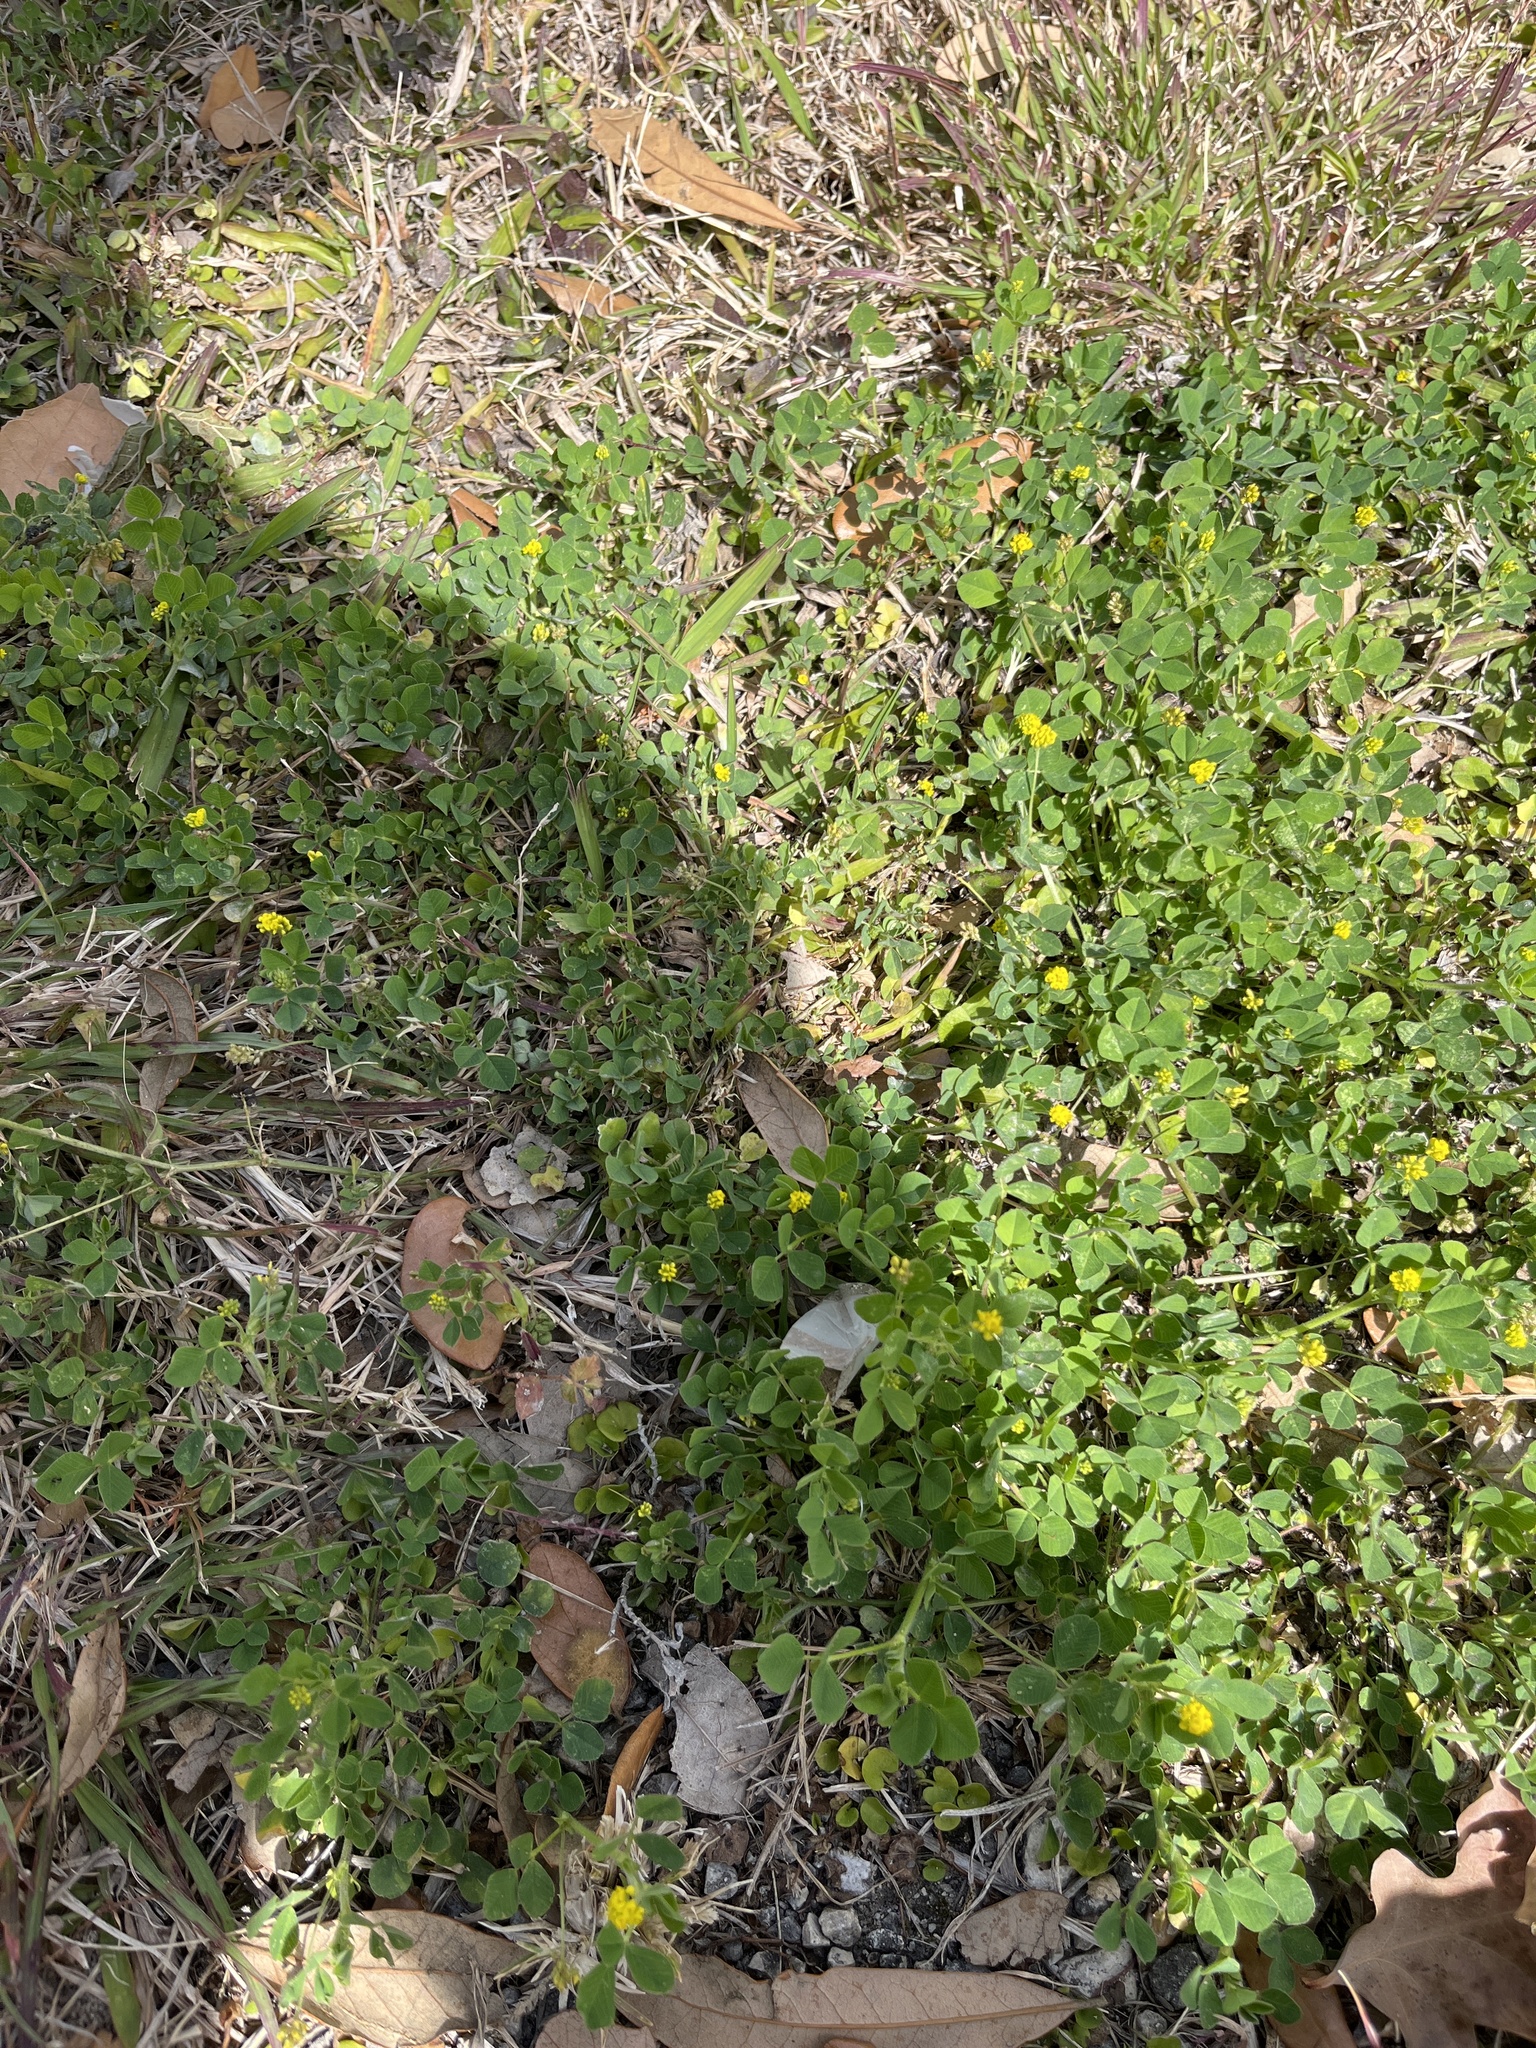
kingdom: Plantae
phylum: Tracheophyta
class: Magnoliopsida
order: Fabales
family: Fabaceae
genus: Medicago
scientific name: Medicago lupulina
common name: Black medick
